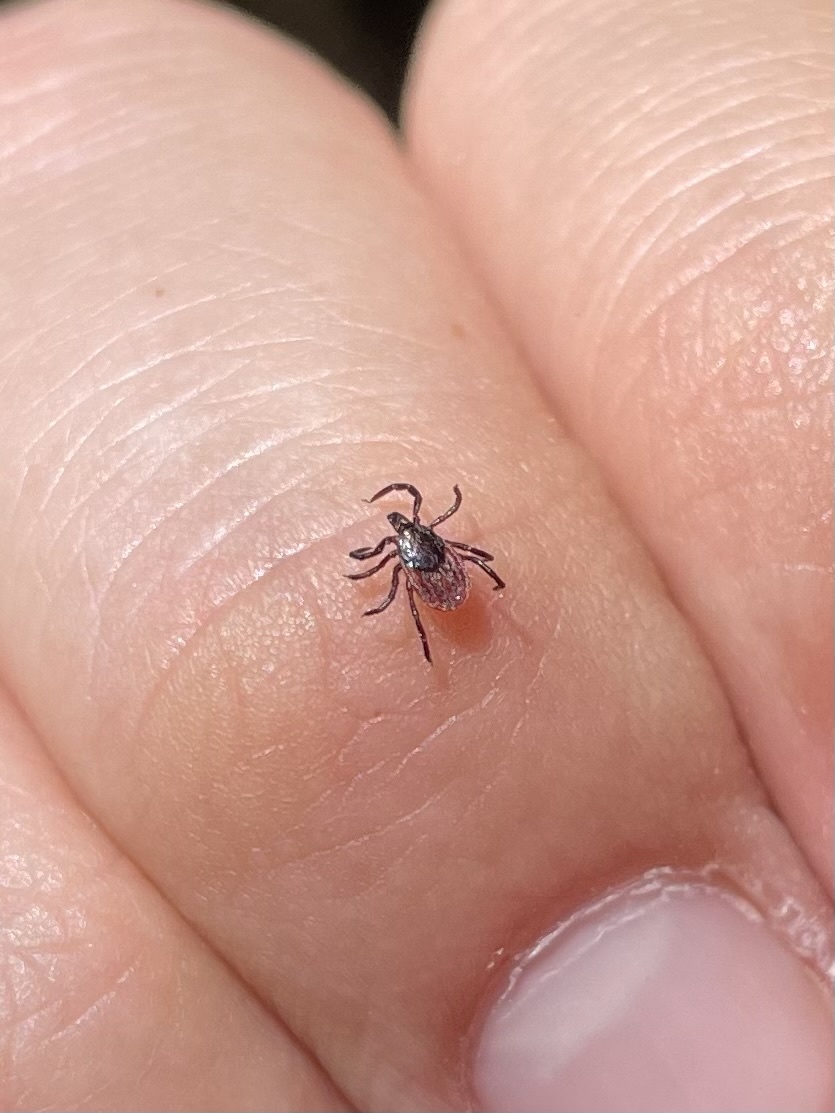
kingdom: Animalia
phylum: Arthropoda
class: Arachnida
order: Ixodida
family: Ixodidae
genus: Ixodes
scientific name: Ixodes pacificus
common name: California black-legged tick
